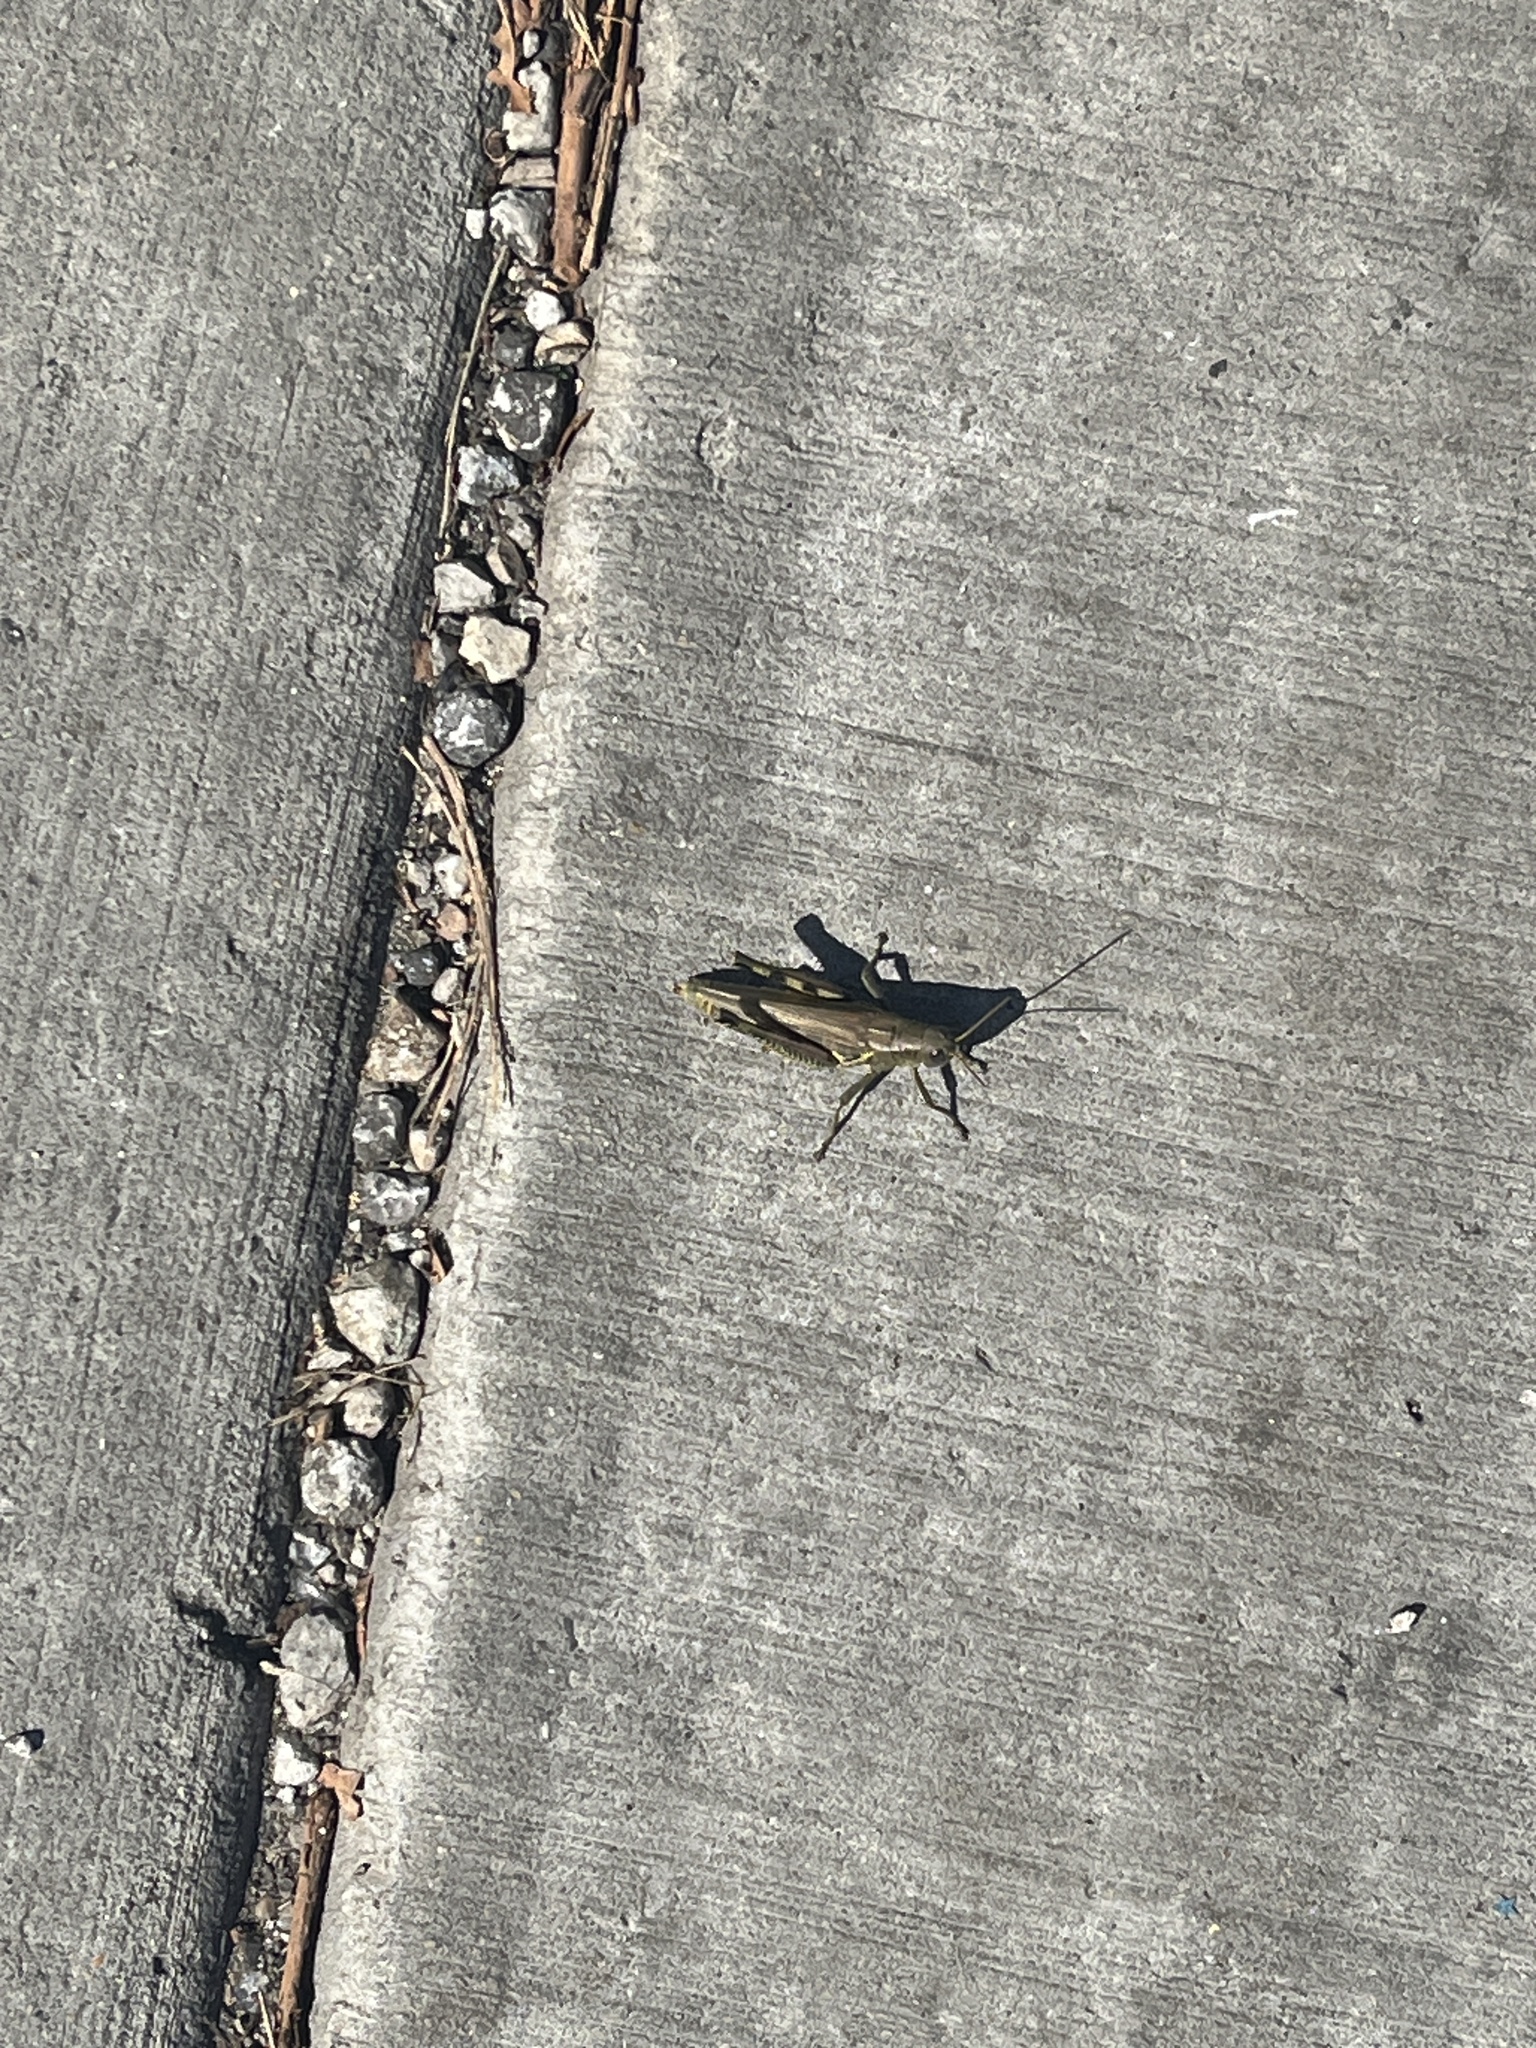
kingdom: Animalia
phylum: Arthropoda
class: Insecta
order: Orthoptera
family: Acrididae
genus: Melanoplus
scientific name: Melanoplus differentialis
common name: Differential grasshopper
